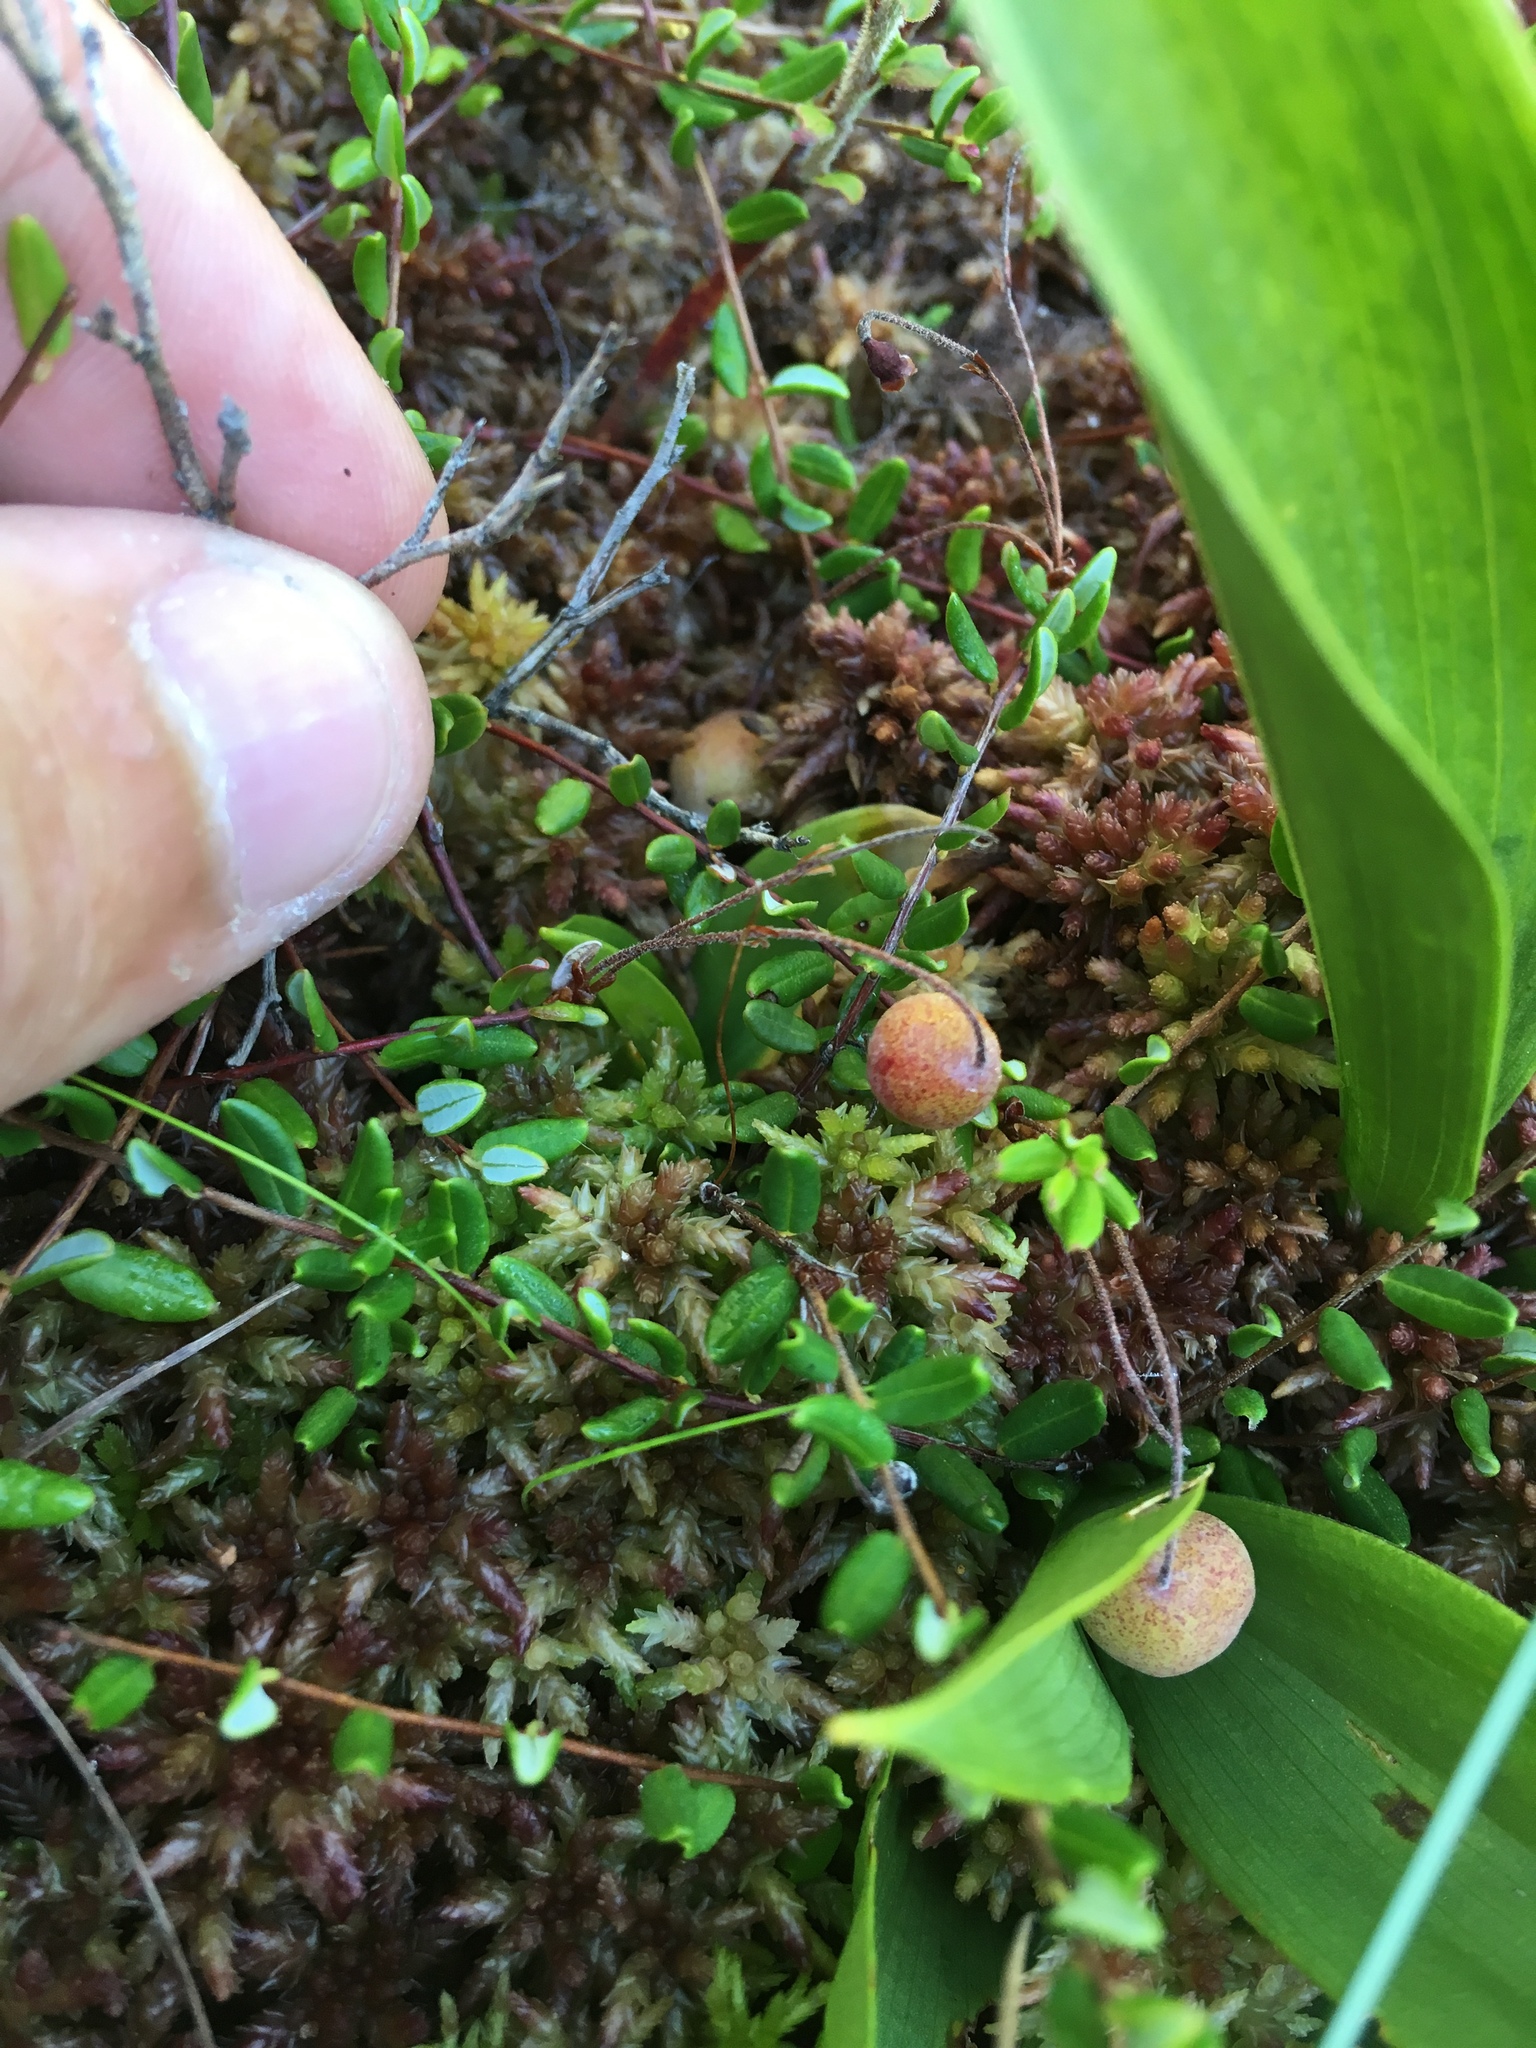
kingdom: Plantae
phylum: Tracheophyta
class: Magnoliopsida
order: Ericales
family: Ericaceae
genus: Vaccinium
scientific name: Vaccinium oxycoccos
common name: Cranberry
